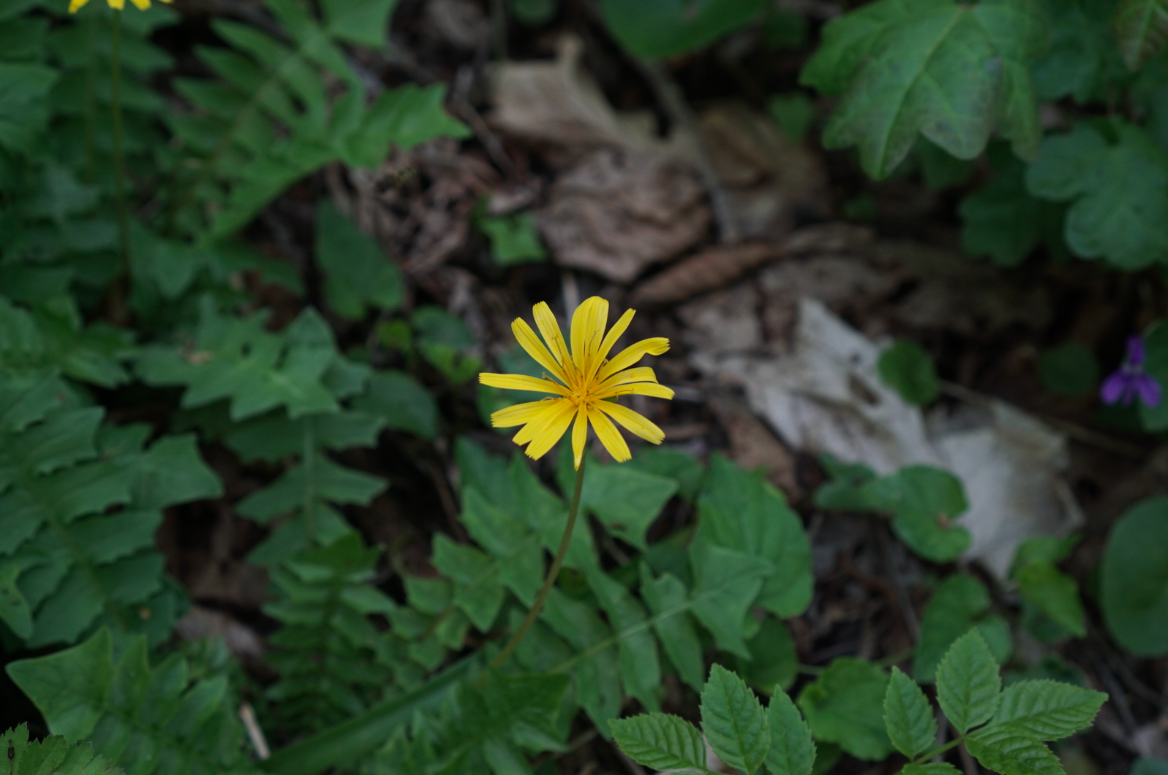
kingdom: Plantae
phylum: Tracheophyta
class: Magnoliopsida
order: Asterales
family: Asteraceae
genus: Aposeris
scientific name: Aposeris foetida
